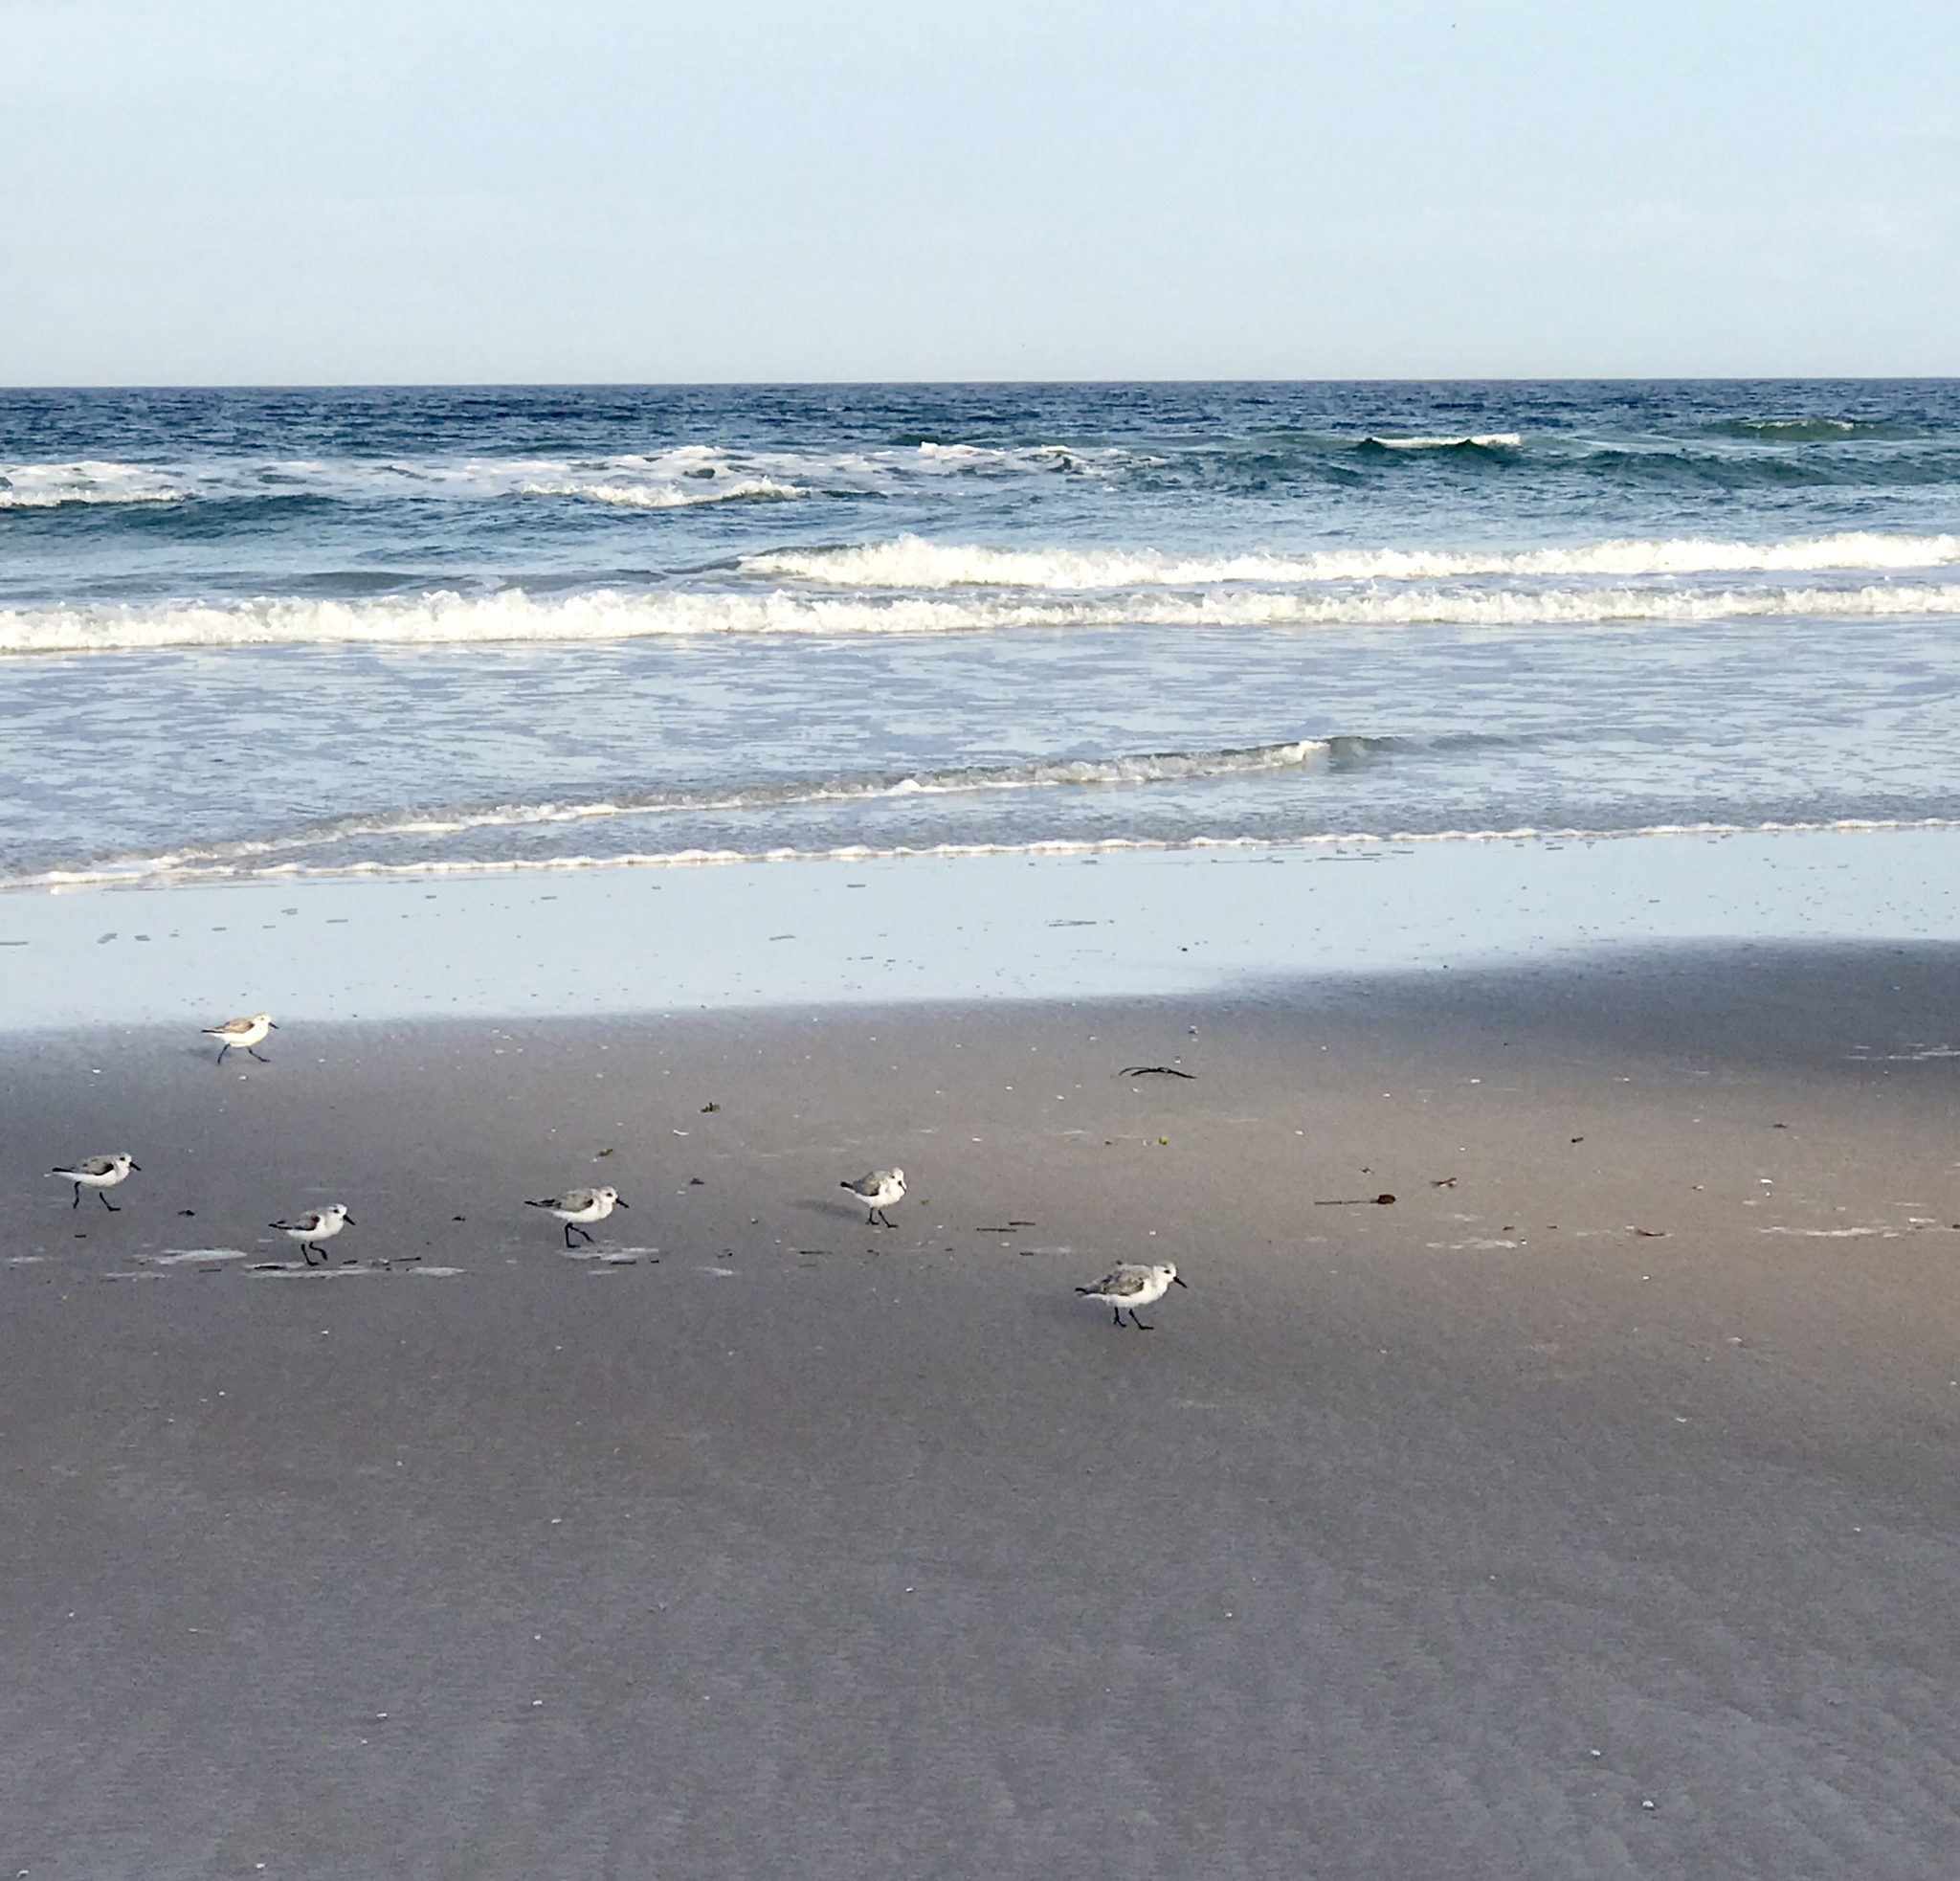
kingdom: Animalia
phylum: Chordata
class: Aves
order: Charadriiformes
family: Scolopacidae
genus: Calidris
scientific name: Calidris alba
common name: Sanderling
